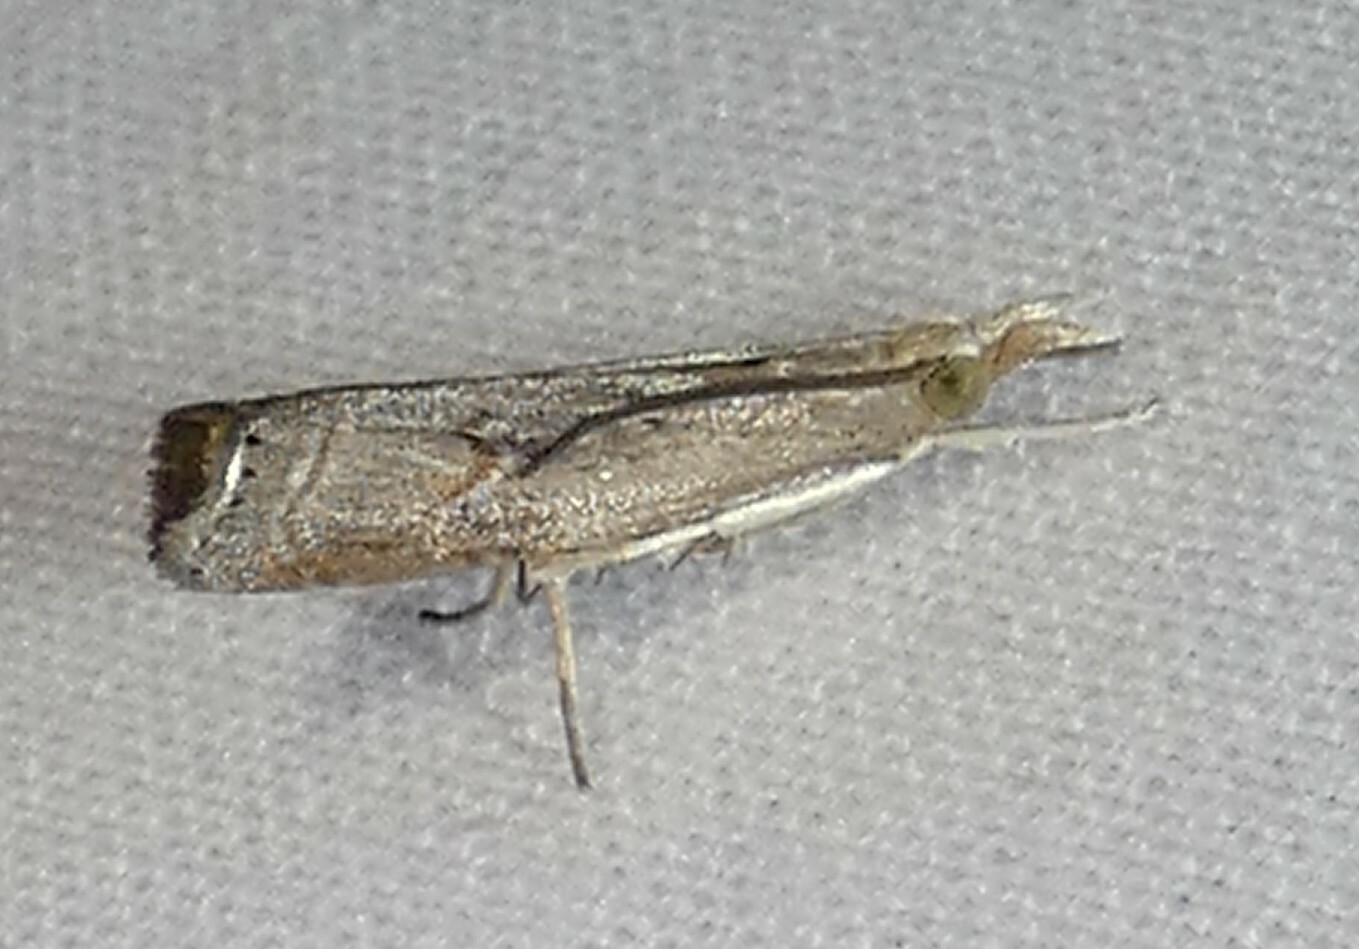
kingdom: Animalia
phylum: Arthropoda
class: Insecta
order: Lepidoptera
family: Crambidae
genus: Parapediasia
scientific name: Parapediasia teterellus
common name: Bluegrass webworm moth
